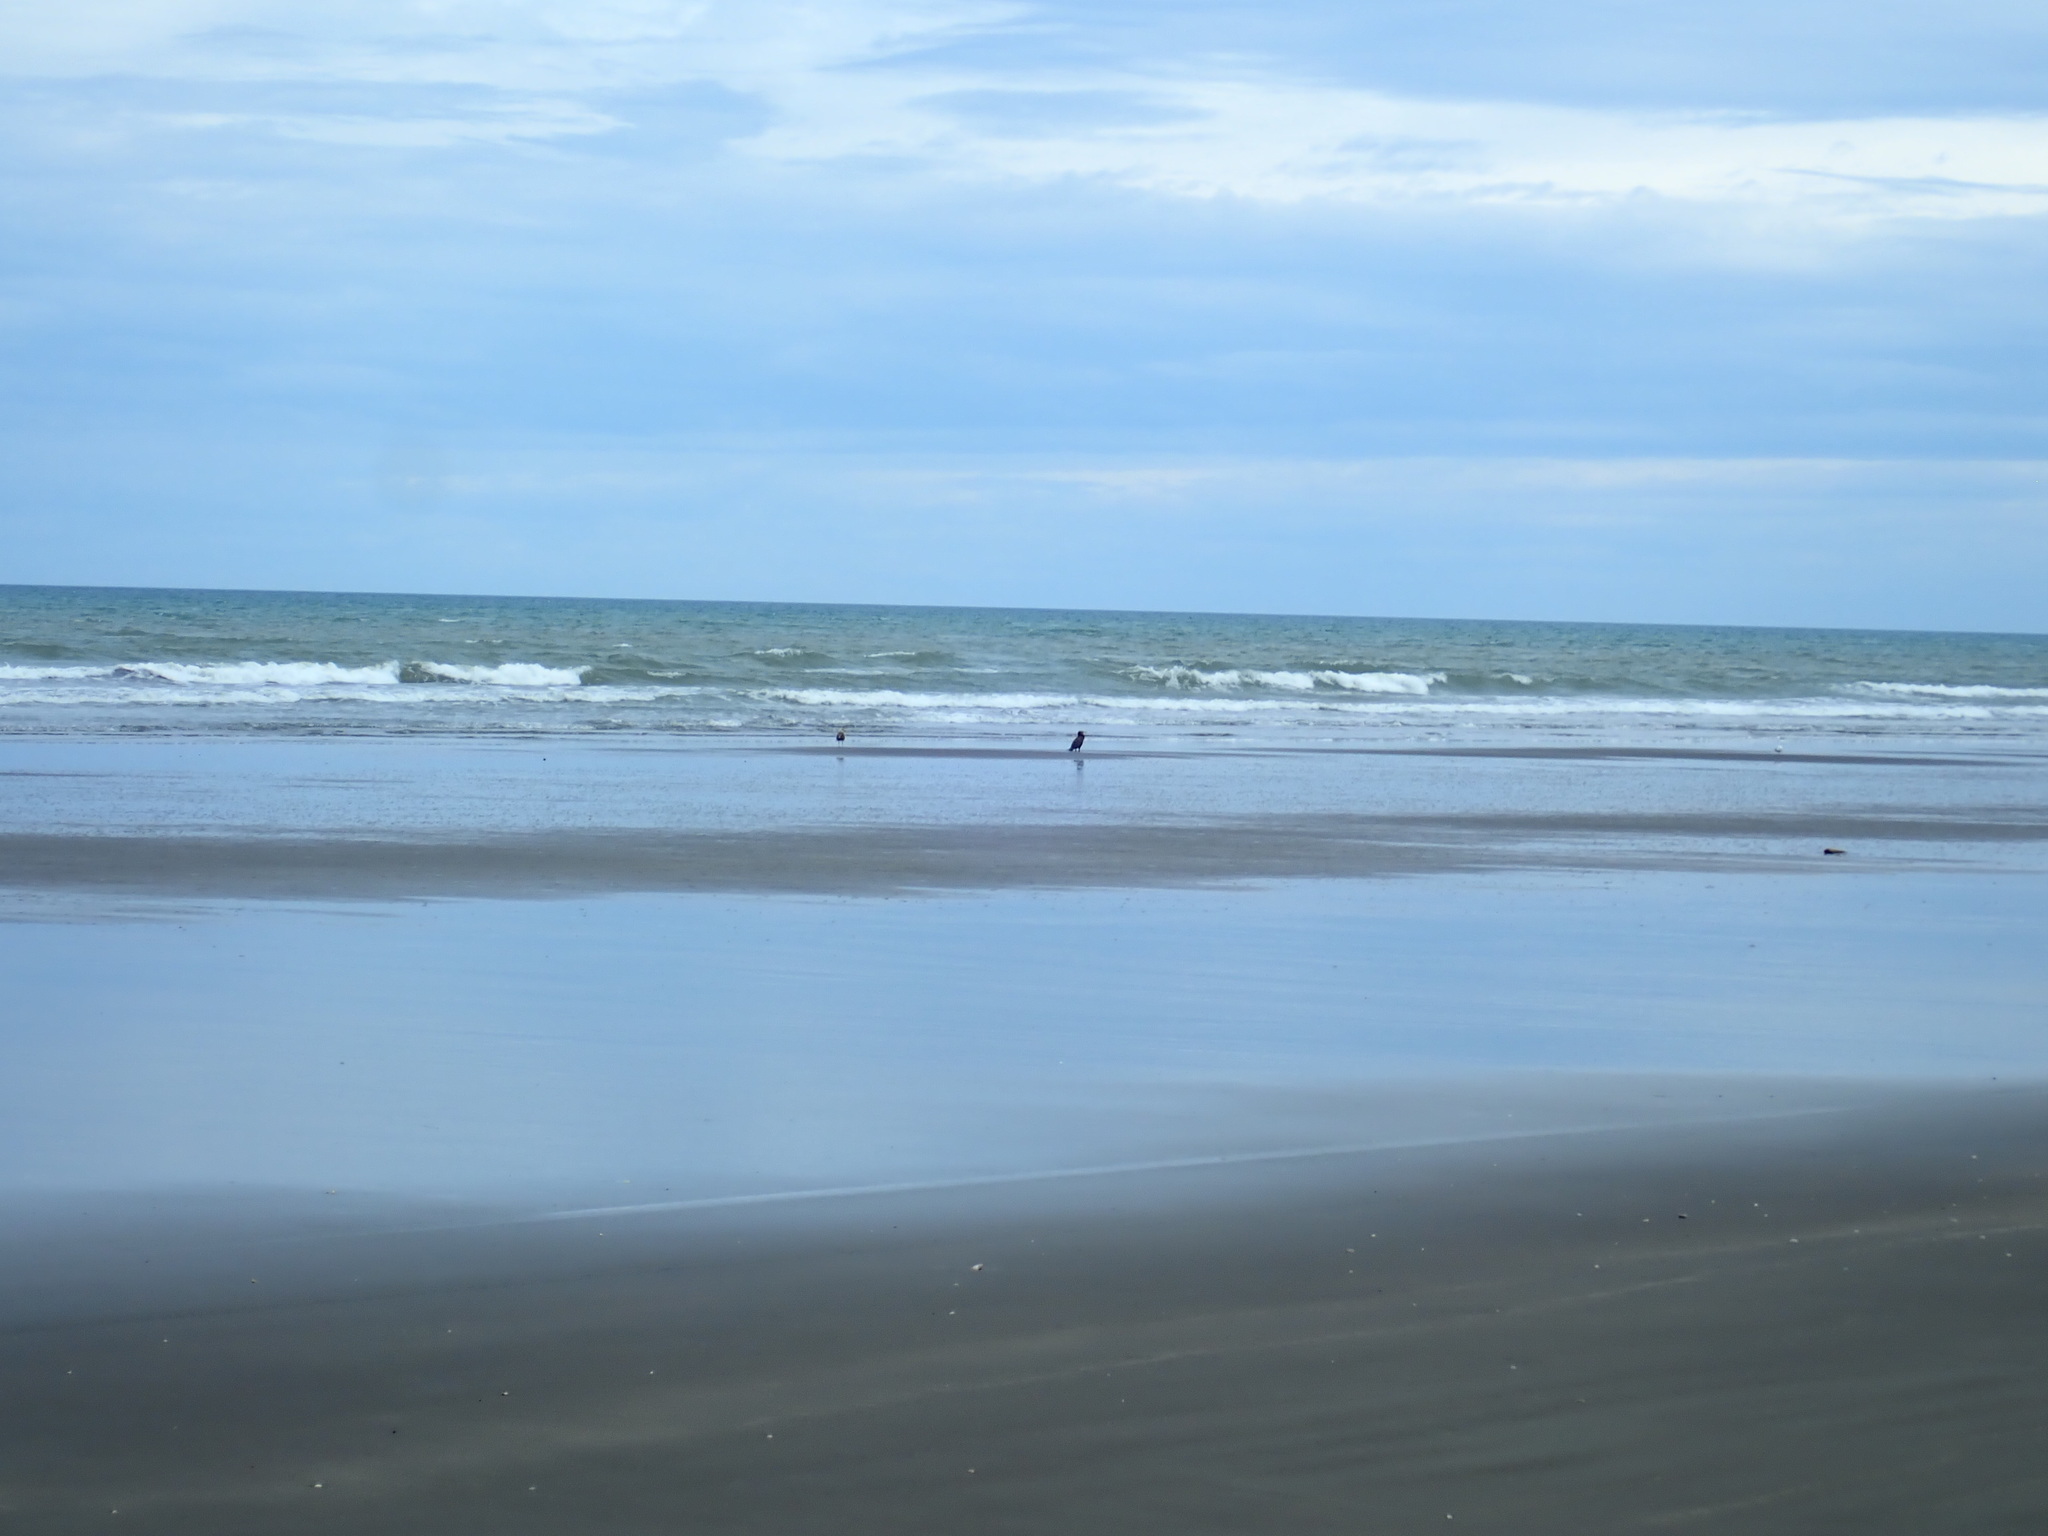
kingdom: Animalia
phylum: Chordata
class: Aves
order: Suliformes
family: Phalacrocoracidae
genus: Phalacrocorax
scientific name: Phalacrocorax carbo
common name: Great cormorant
